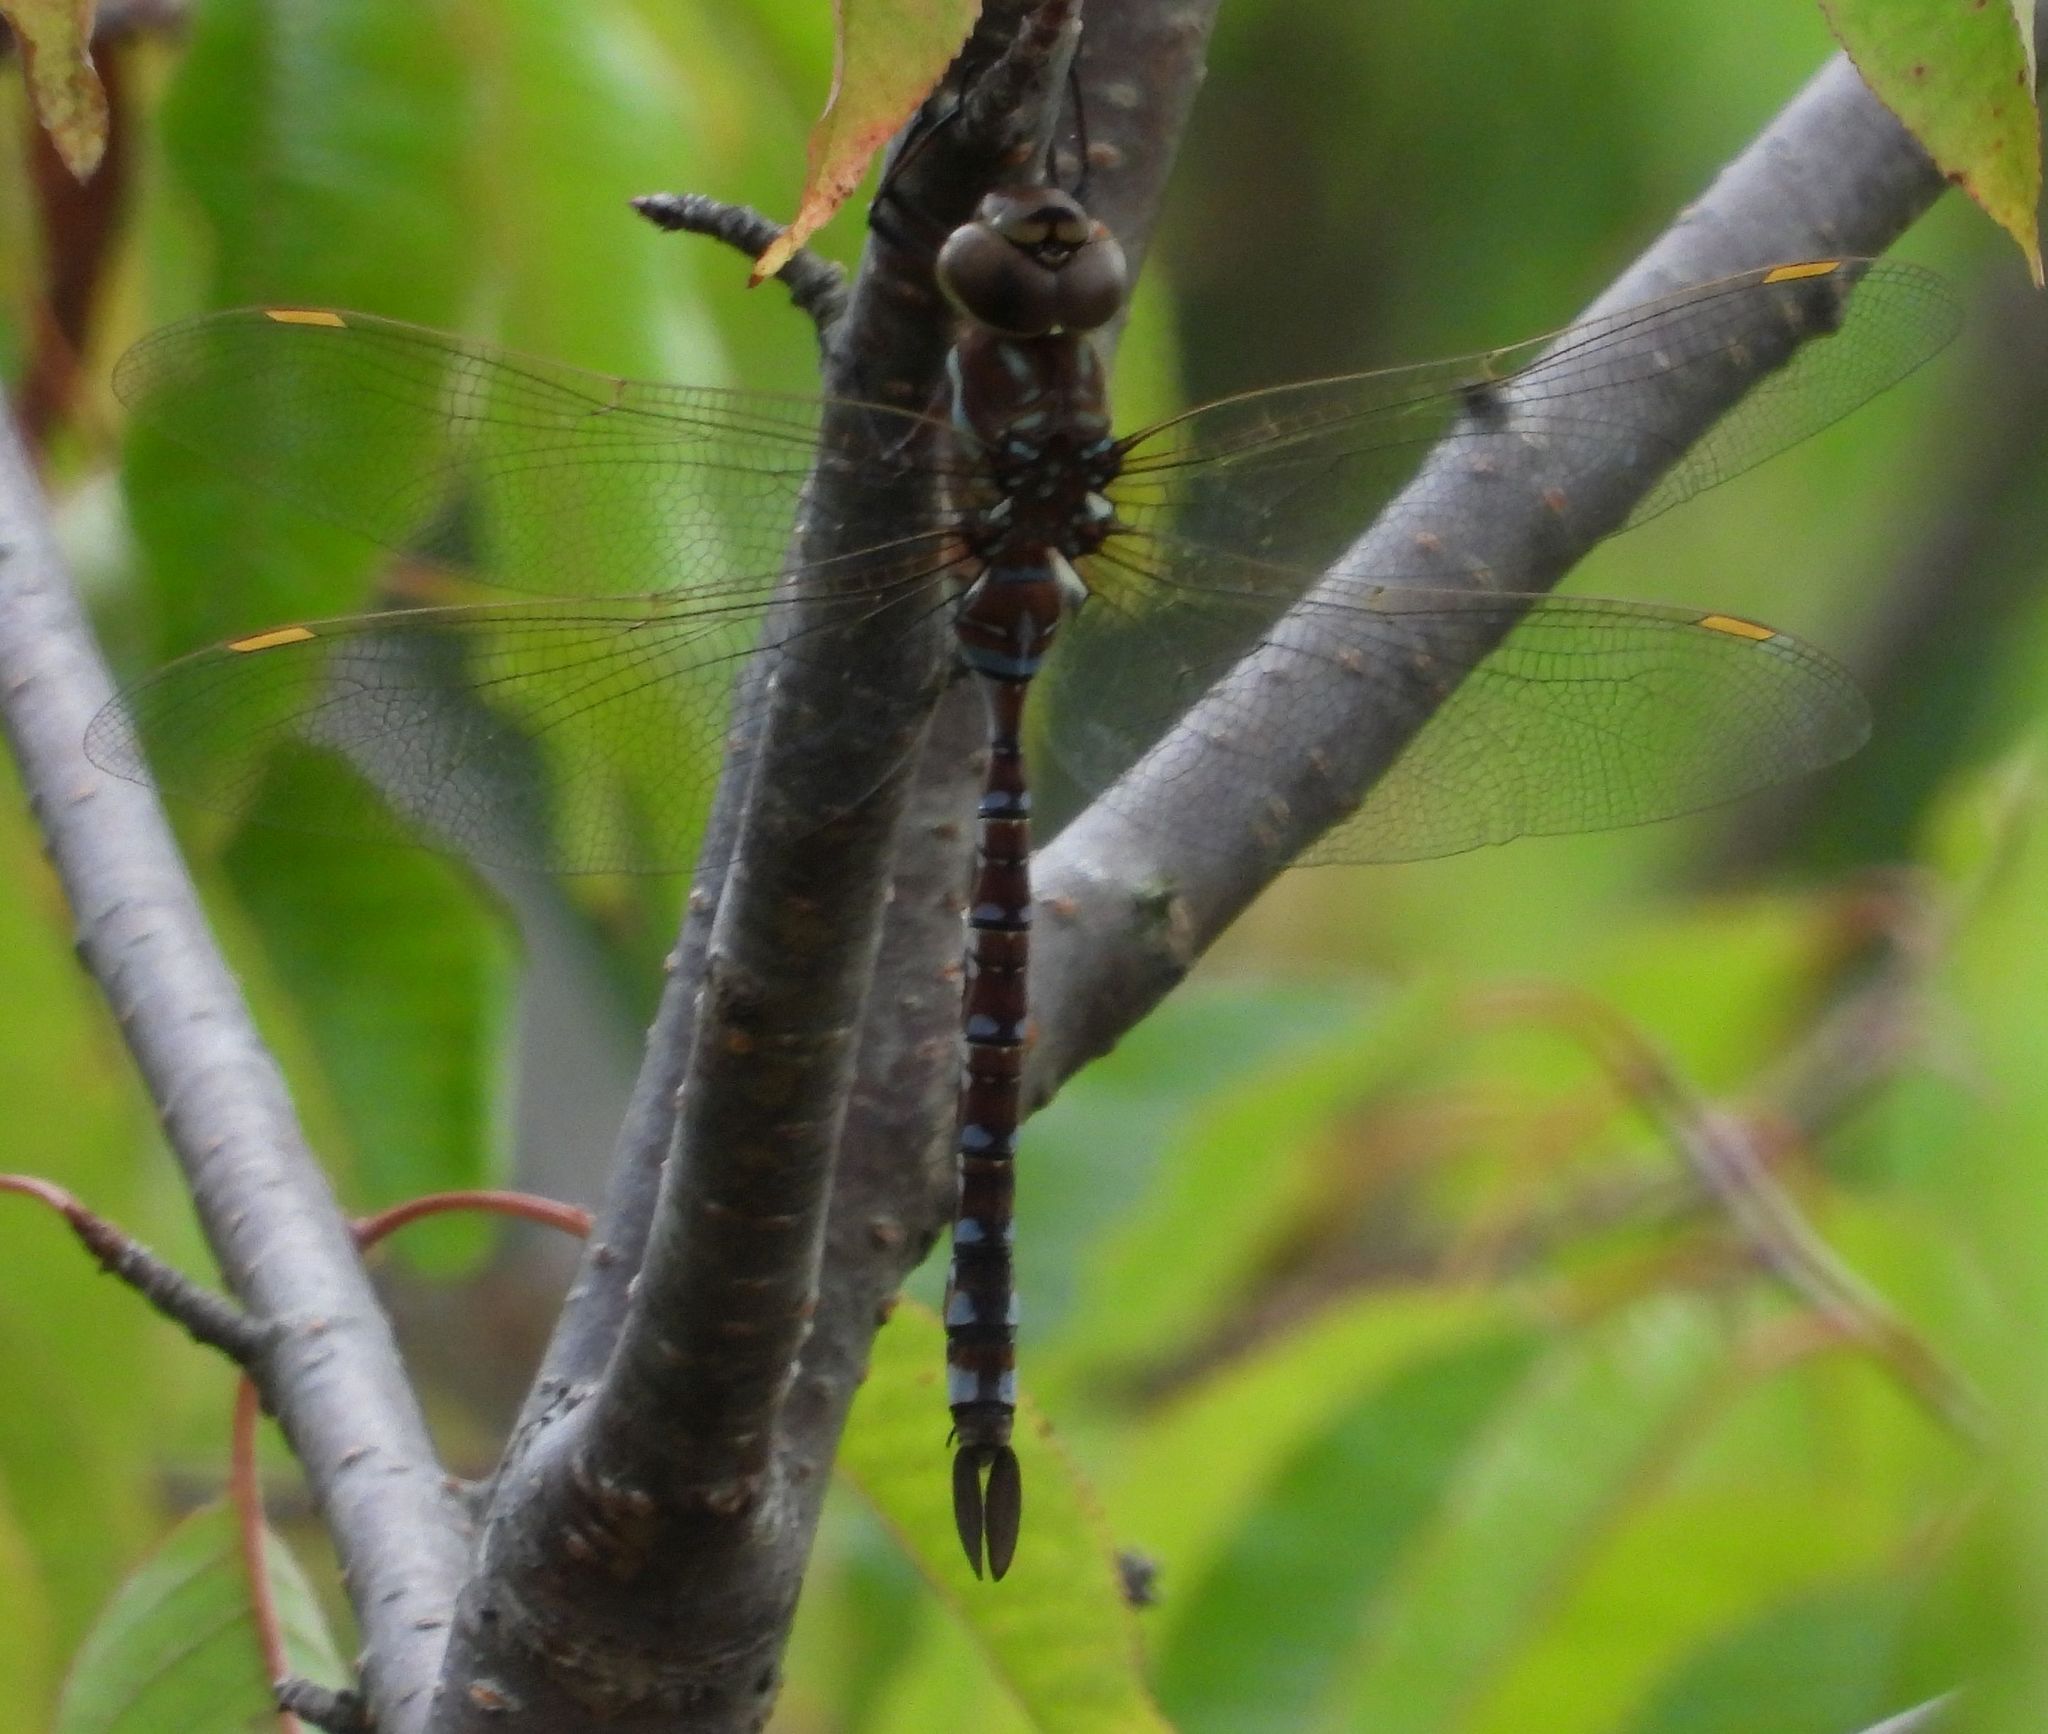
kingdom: Animalia
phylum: Arthropoda
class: Insecta
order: Odonata
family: Aeshnidae
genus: Aeshna
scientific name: Aeshna constricta
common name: Lance-tipped darner
